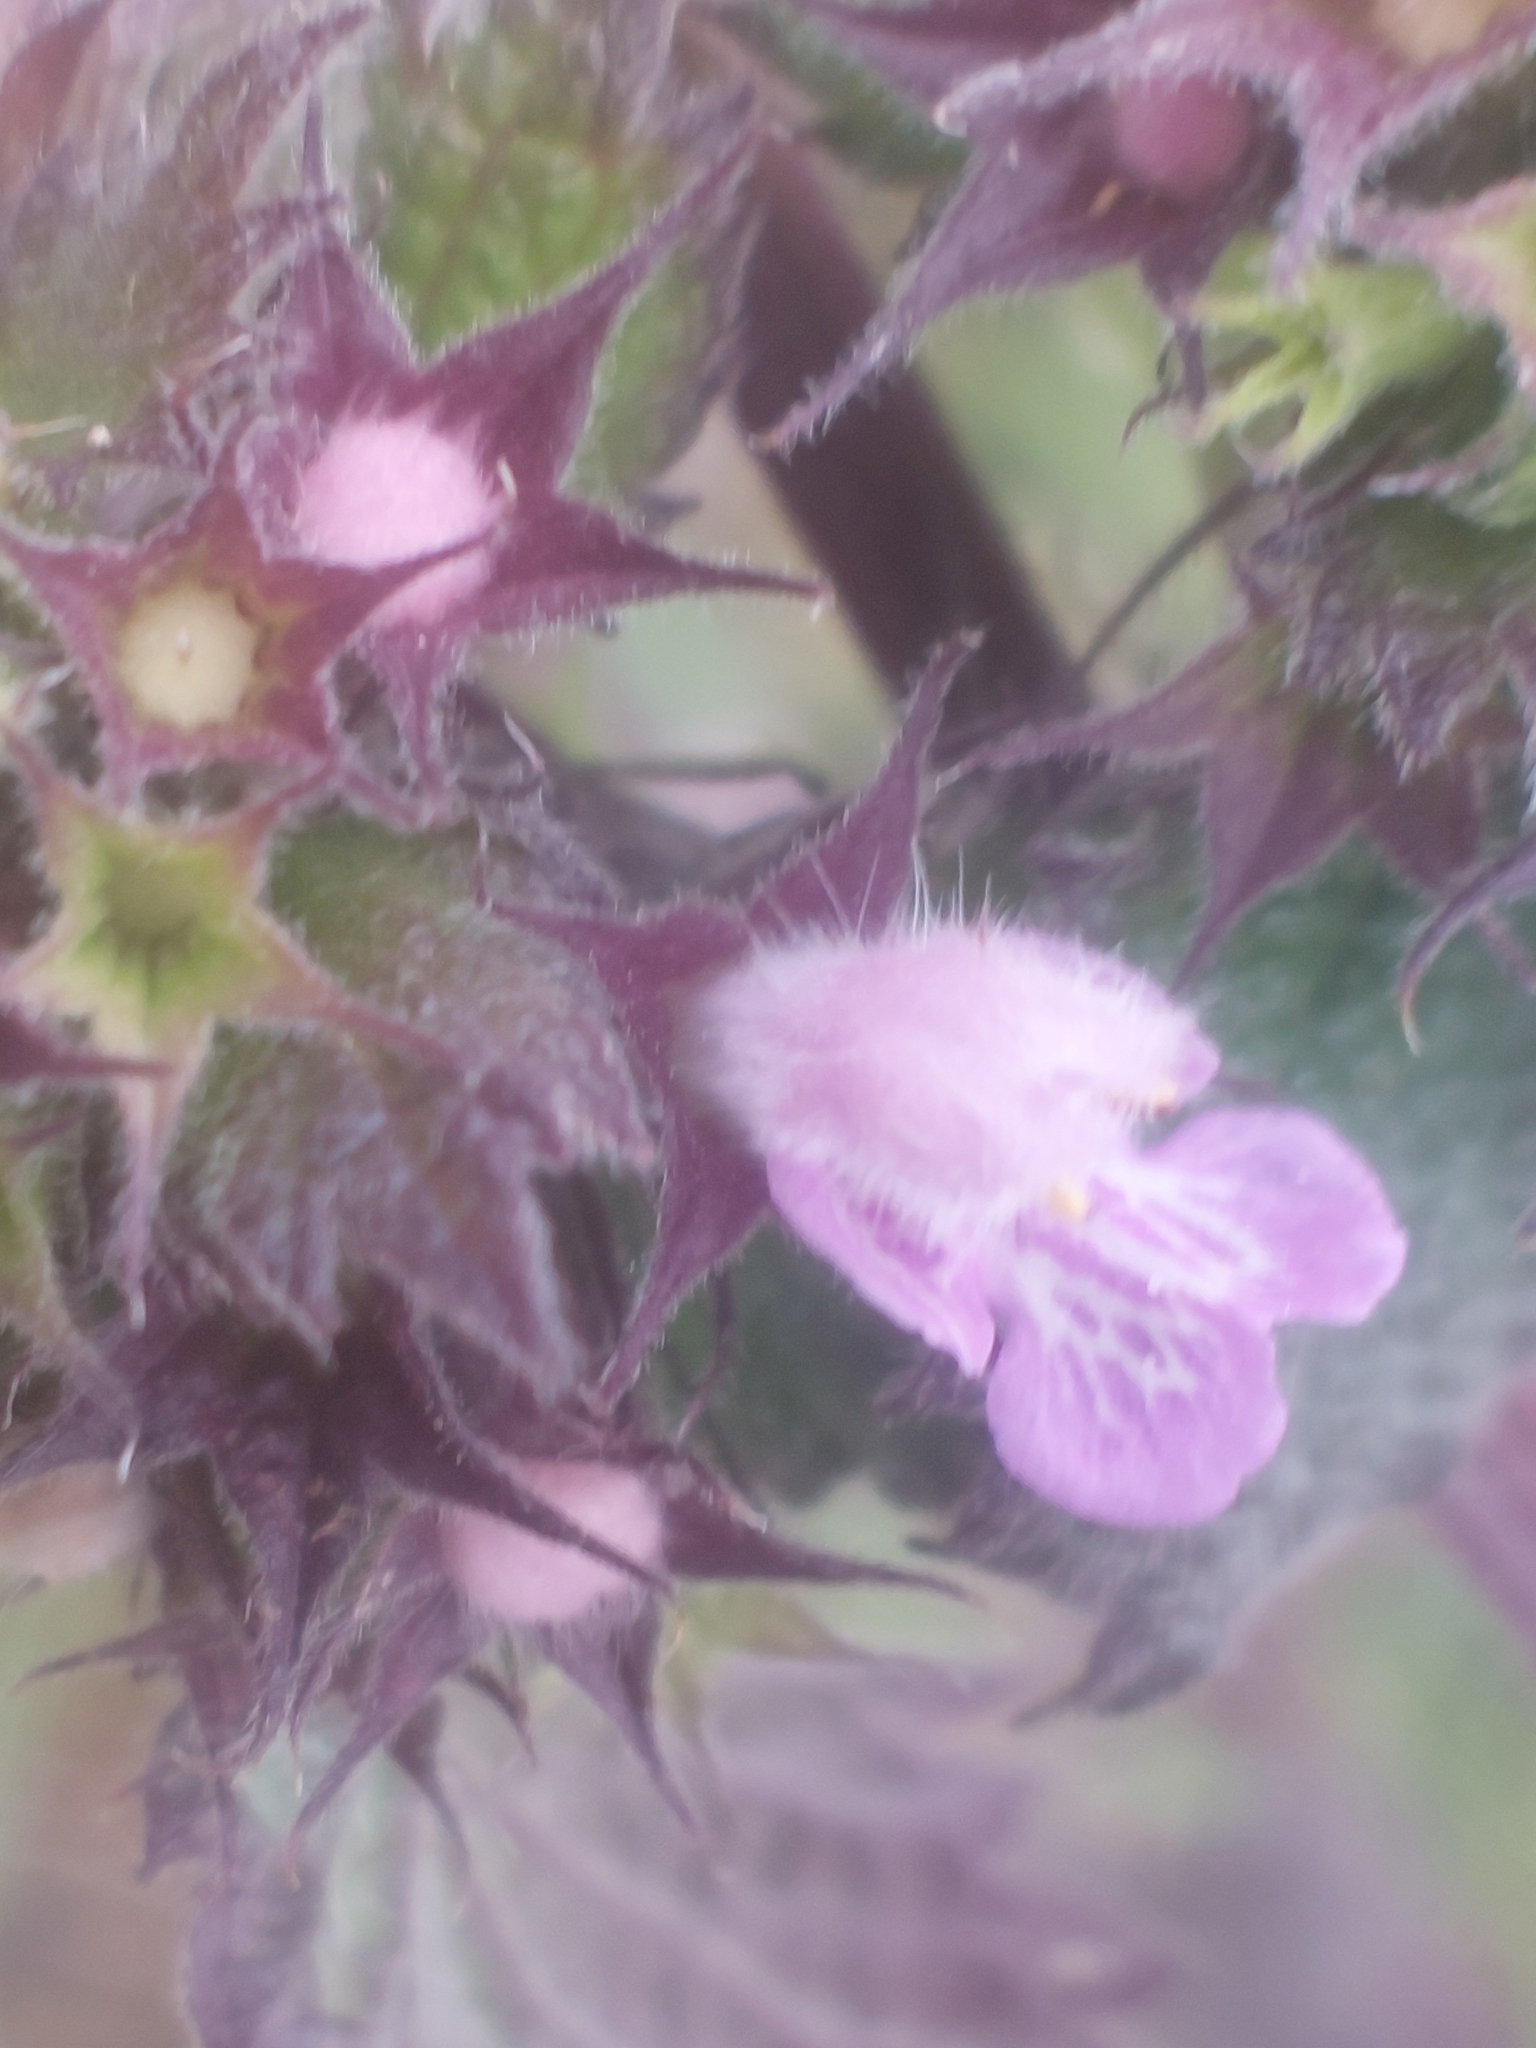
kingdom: Plantae
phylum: Tracheophyta
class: Magnoliopsida
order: Lamiales
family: Lamiaceae
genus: Ballota
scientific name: Ballota nigra
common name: Black horehound
